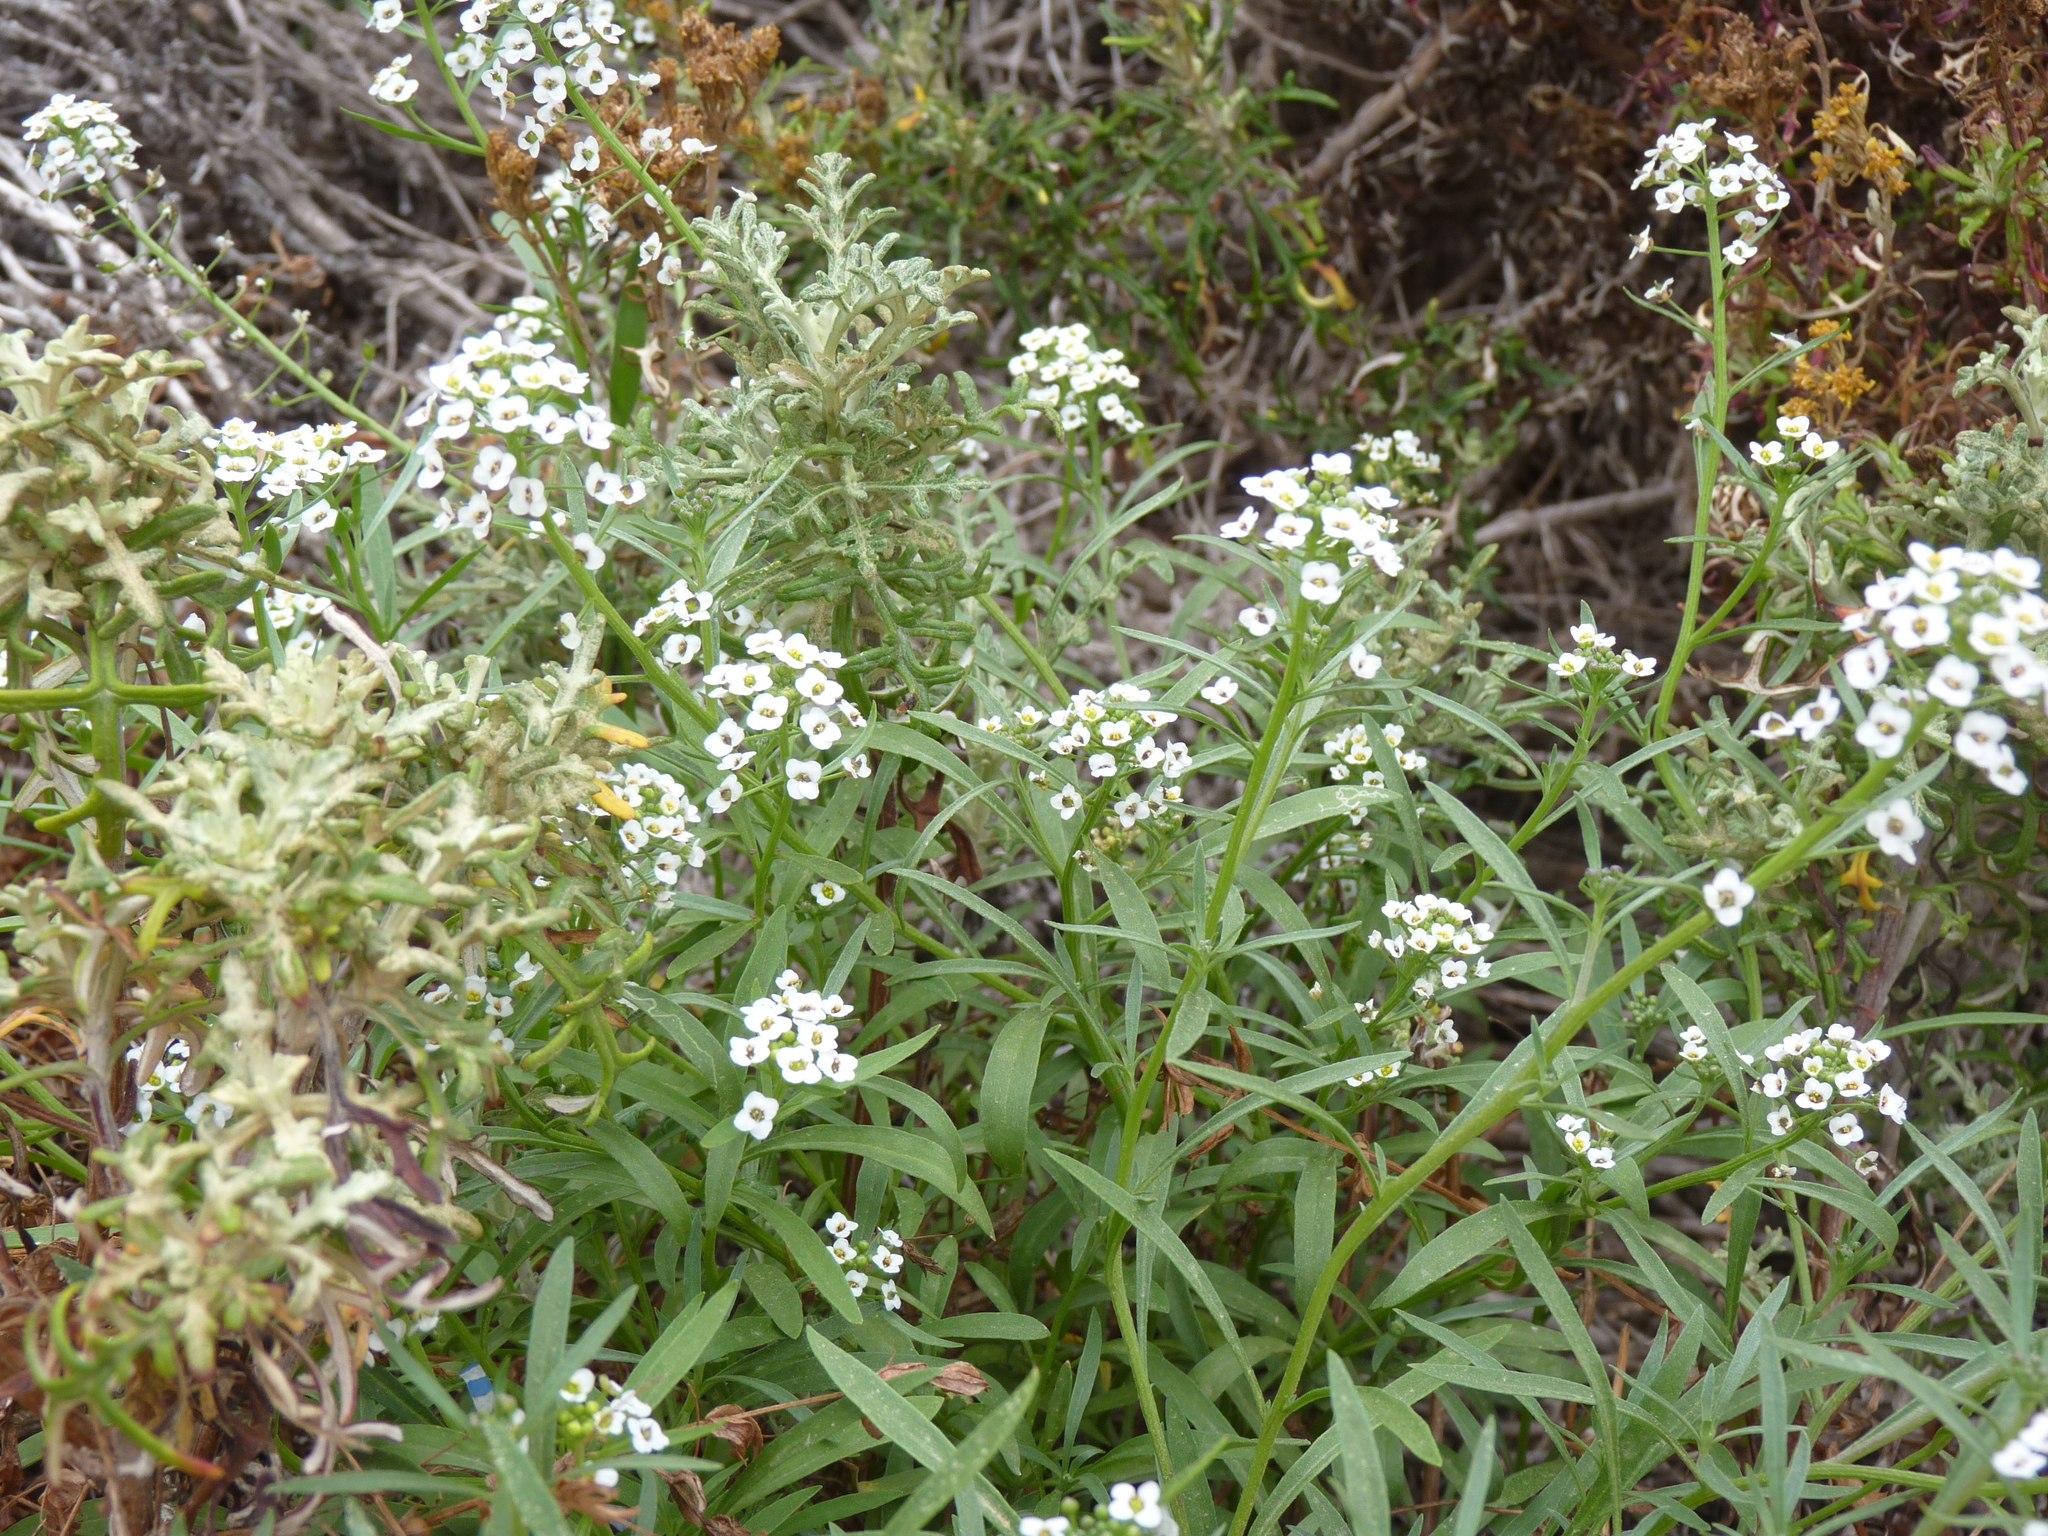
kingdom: Plantae
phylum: Tracheophyta
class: Magnoliopsida
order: Brassicales
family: Brassicaceae
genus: Lobularia
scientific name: Lobularia maritima
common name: Sweet alison
